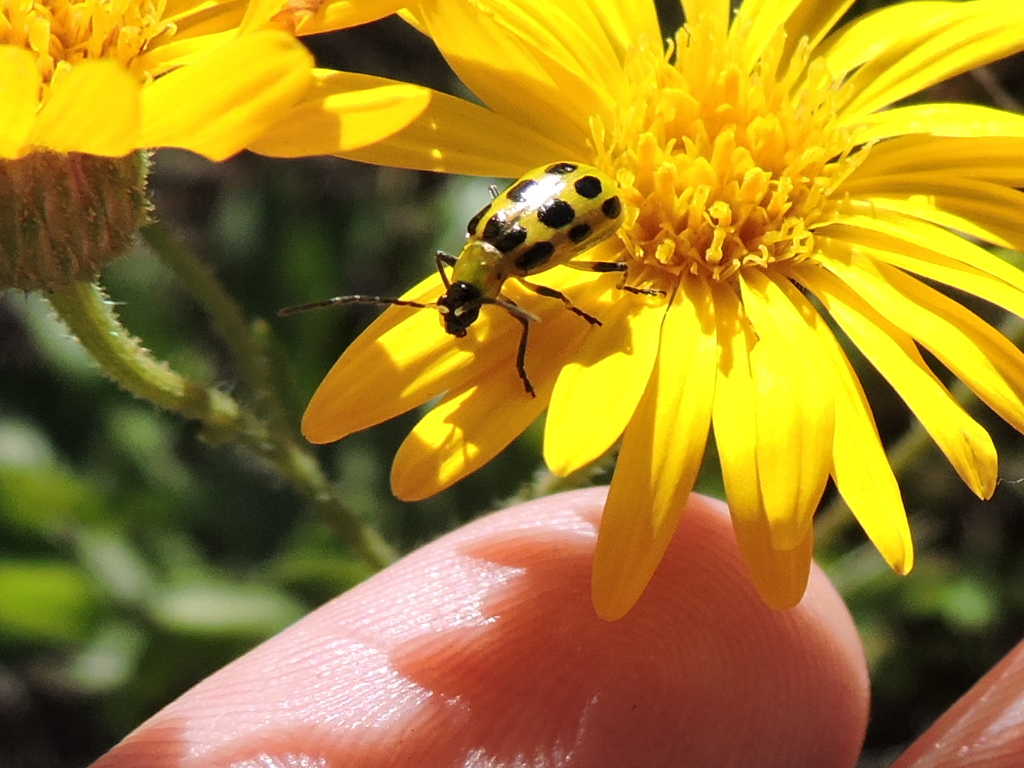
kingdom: Animalia
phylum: Arthropoda
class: Insecta
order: Coleoptera
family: Chrysomelidae
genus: Diabrotica
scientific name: Diabrotica undecimpunctata
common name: Spotted cucumber beetle
